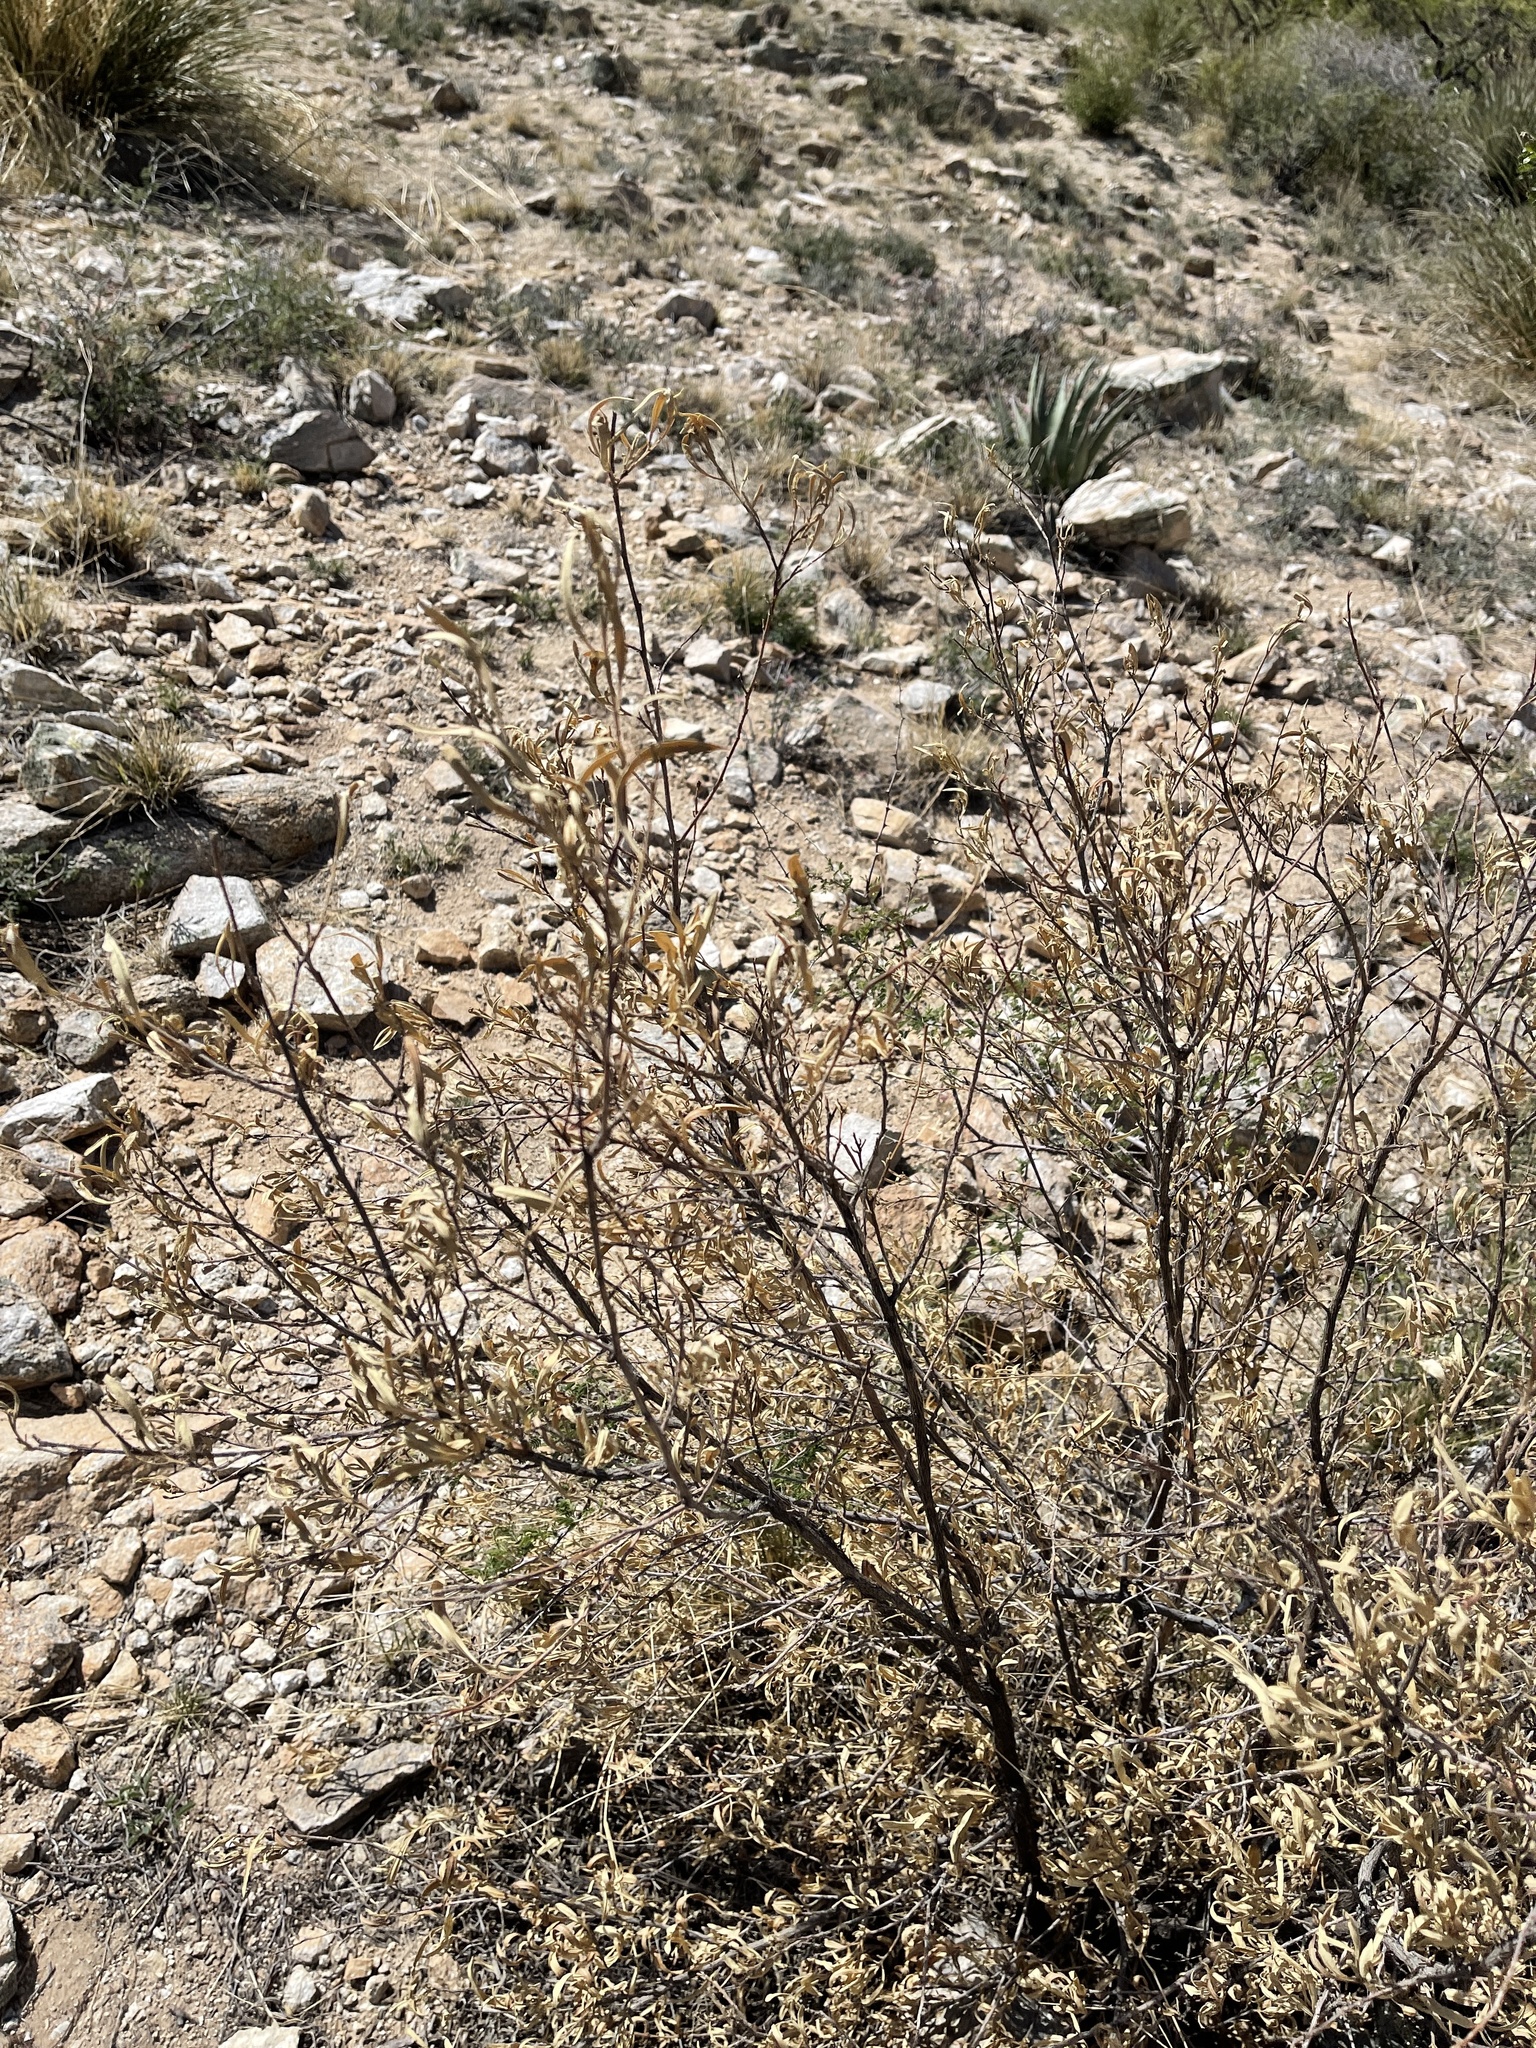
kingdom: Plantae
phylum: Tracheophyta
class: Magnoliopsida
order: Sapindales
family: Sapindaceae
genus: Dodonaea
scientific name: Dodonaea viscosa
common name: Hopbush
